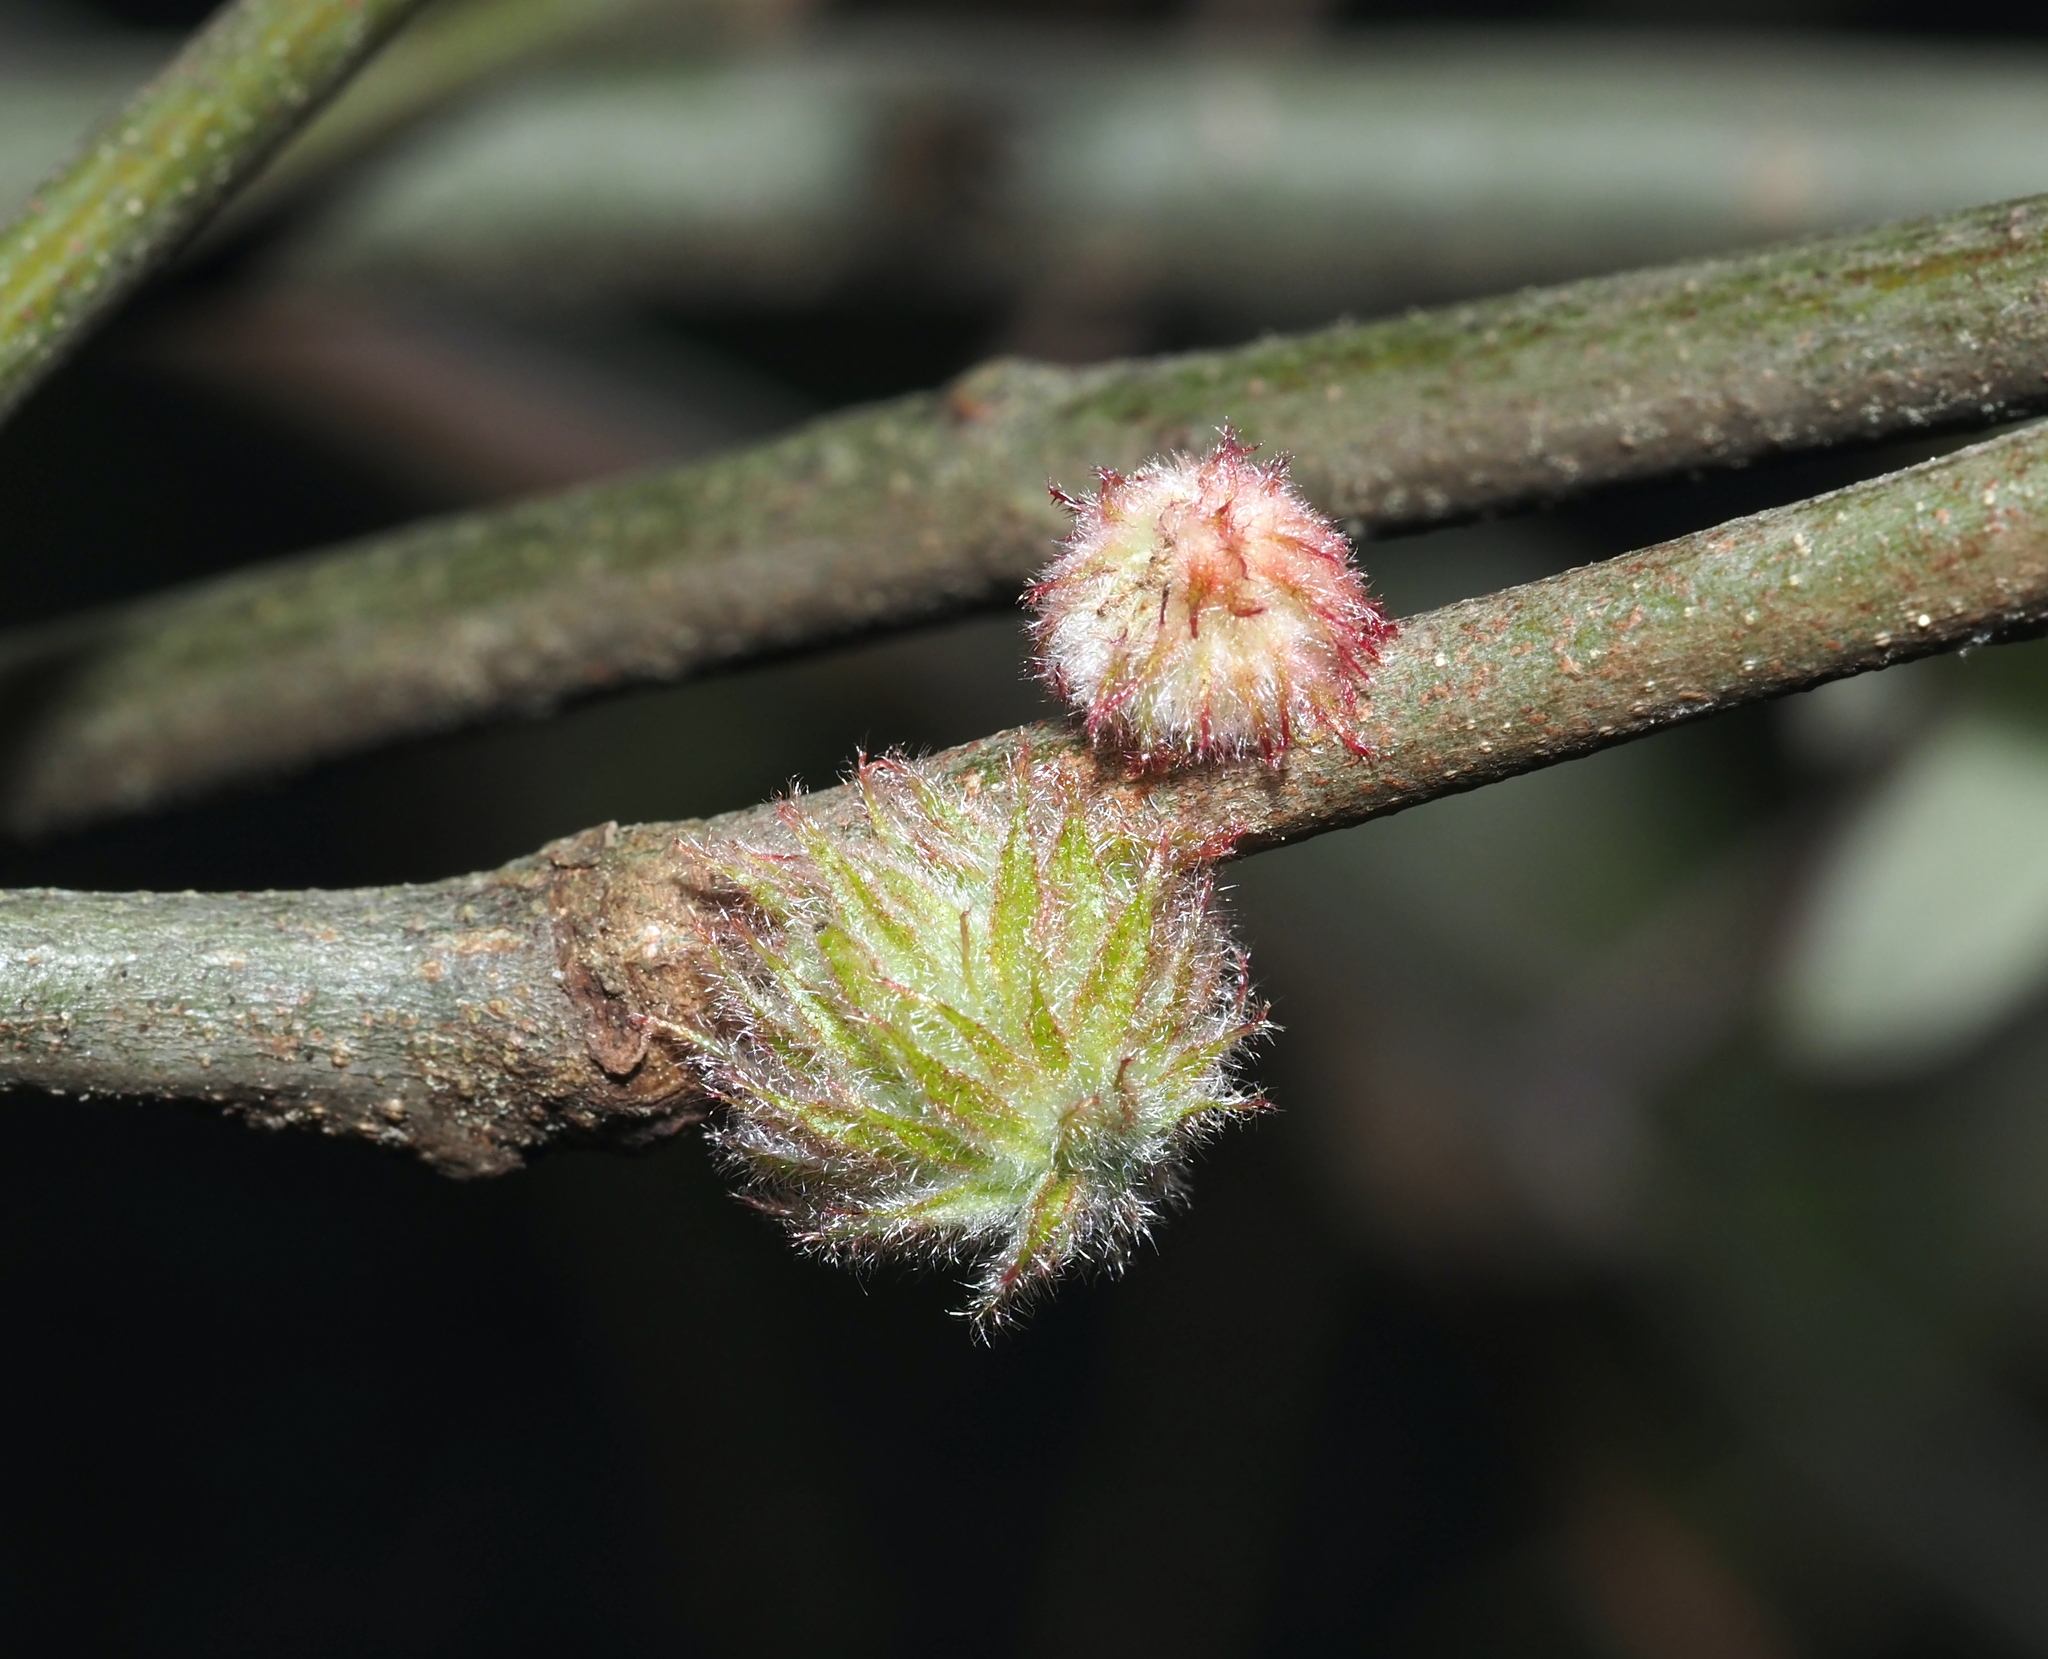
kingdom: Animalia
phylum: Arthropoda
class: Insecta
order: Hymenoptera
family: Cynipidae
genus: Dryocosmus
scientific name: Dryocosmus
